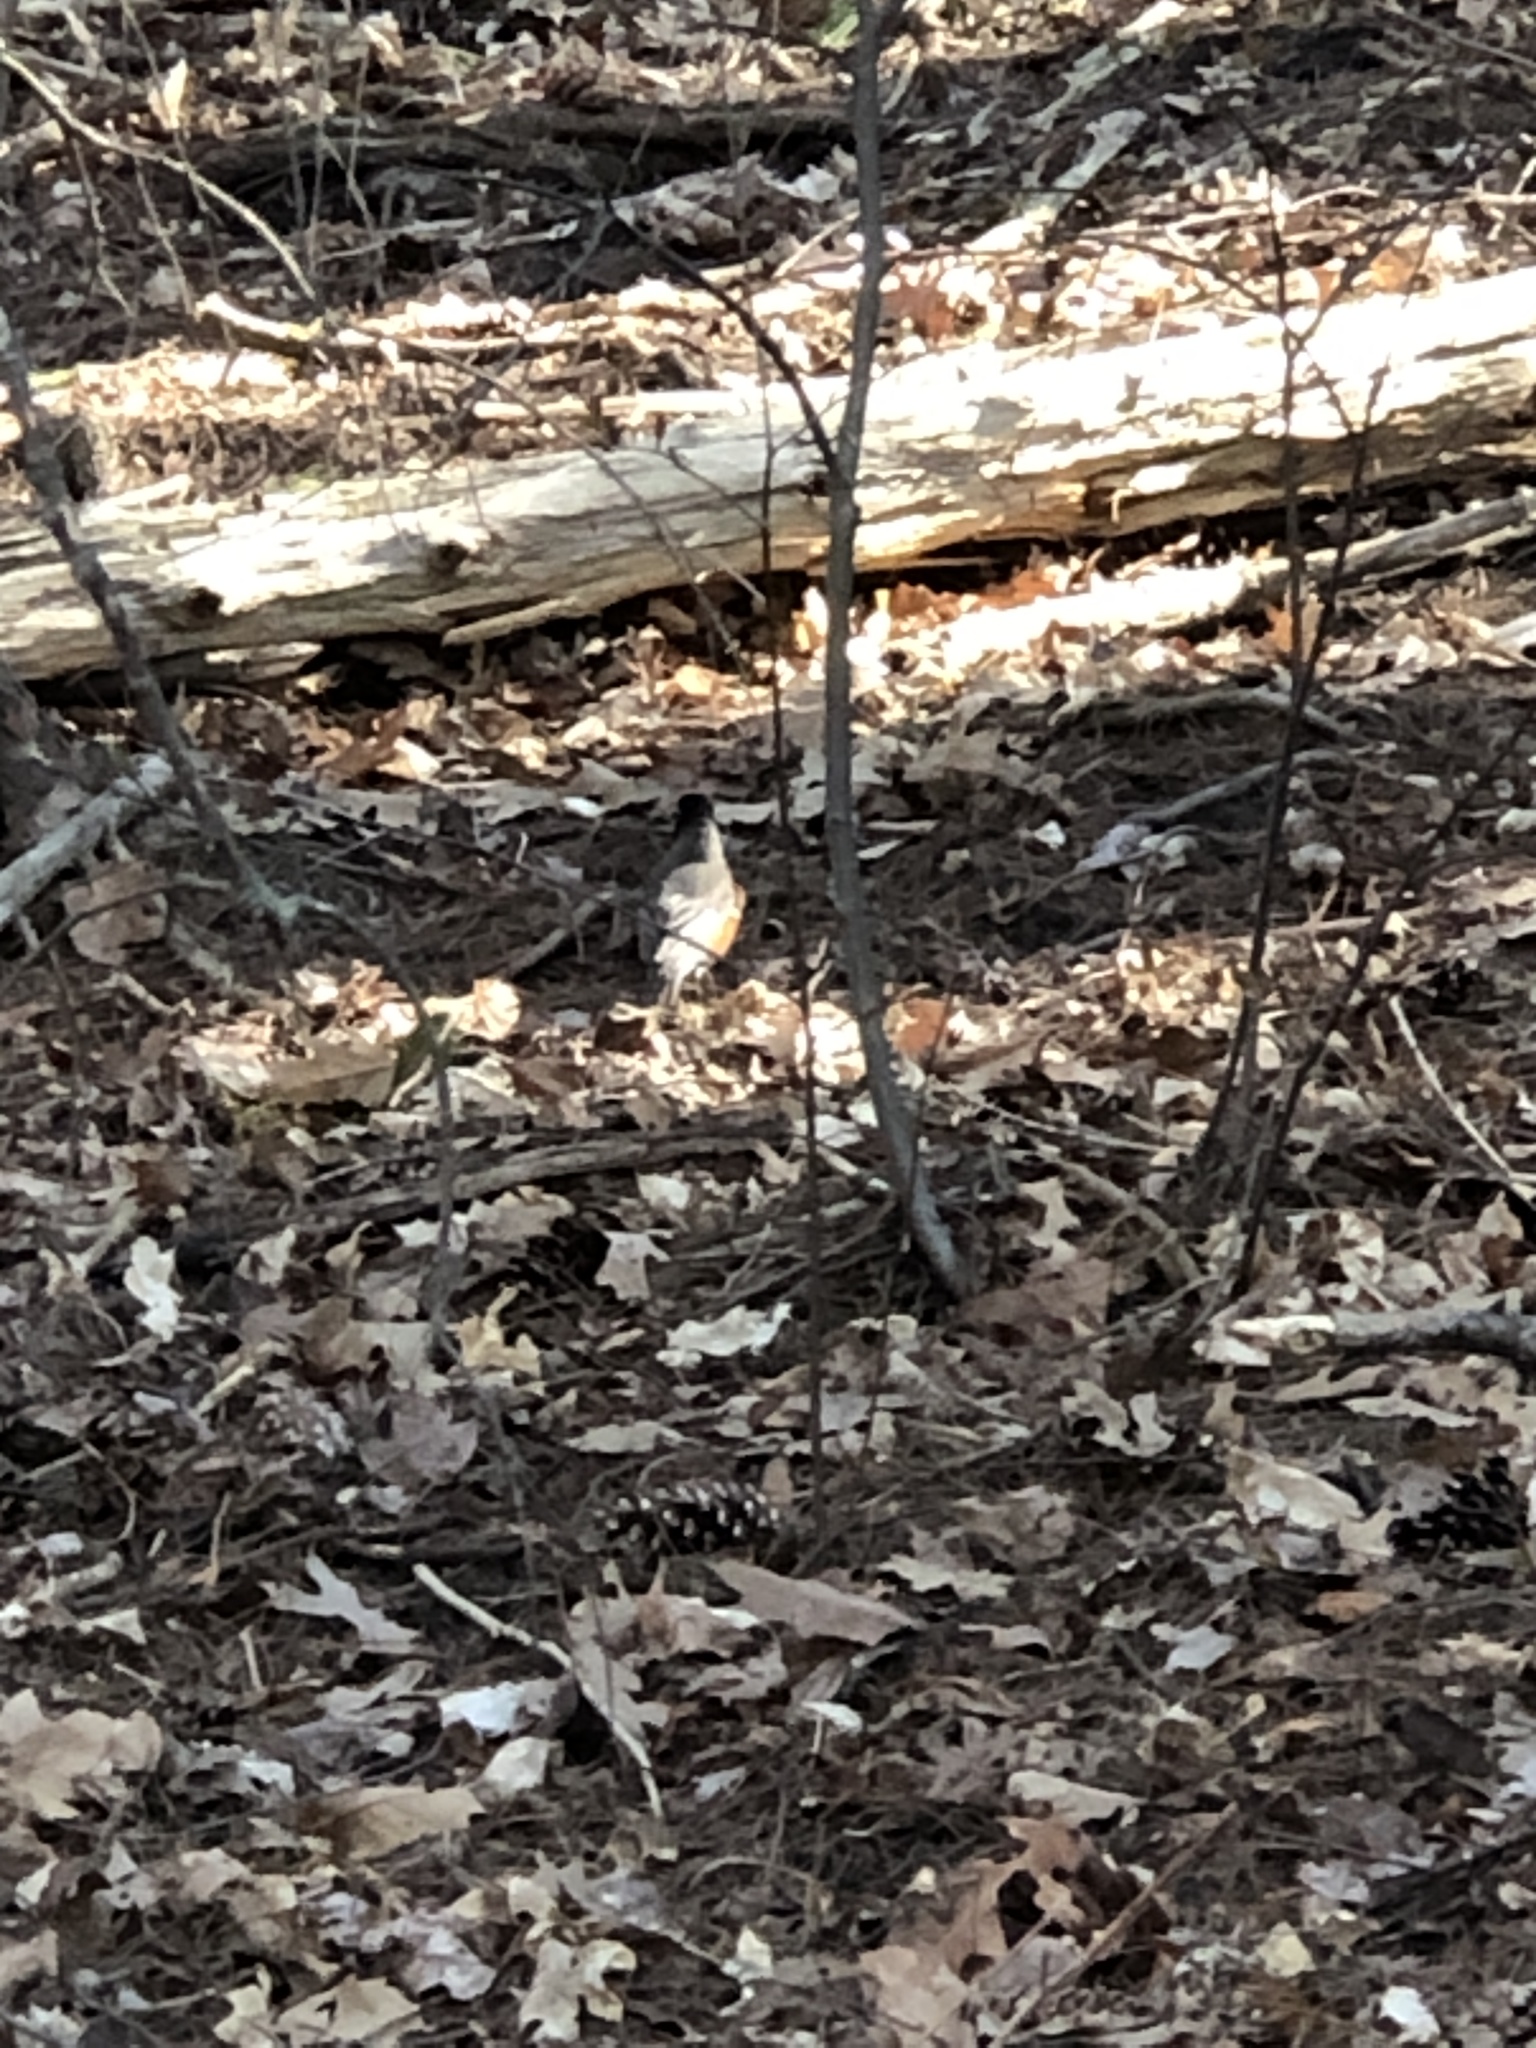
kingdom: Animalia
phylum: Chordata
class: Aves
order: Passeriformes
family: Turdidae
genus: Turdus
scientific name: Turdus migratorius
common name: American robin
